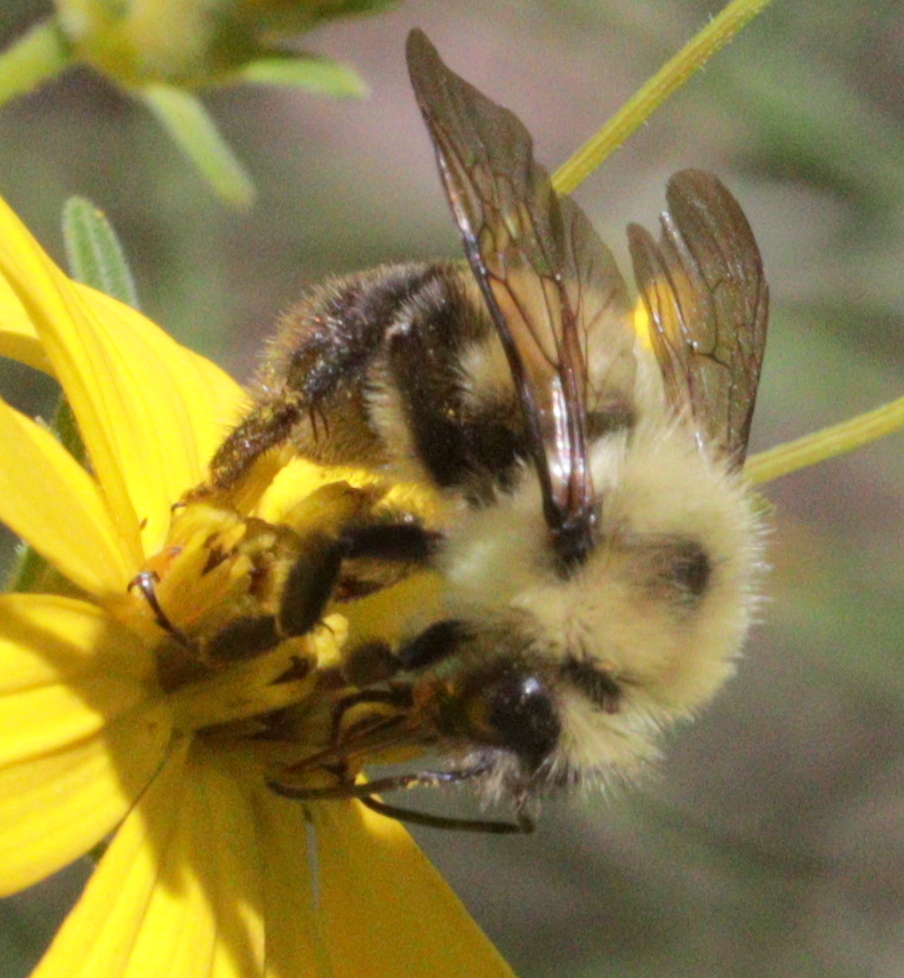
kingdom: Animalia
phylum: Arthropoda
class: Insecta
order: Hymenoptera
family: Apidae
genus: Bombus
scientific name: Bombus bimaculatus
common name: Two-spotted bumble bee
